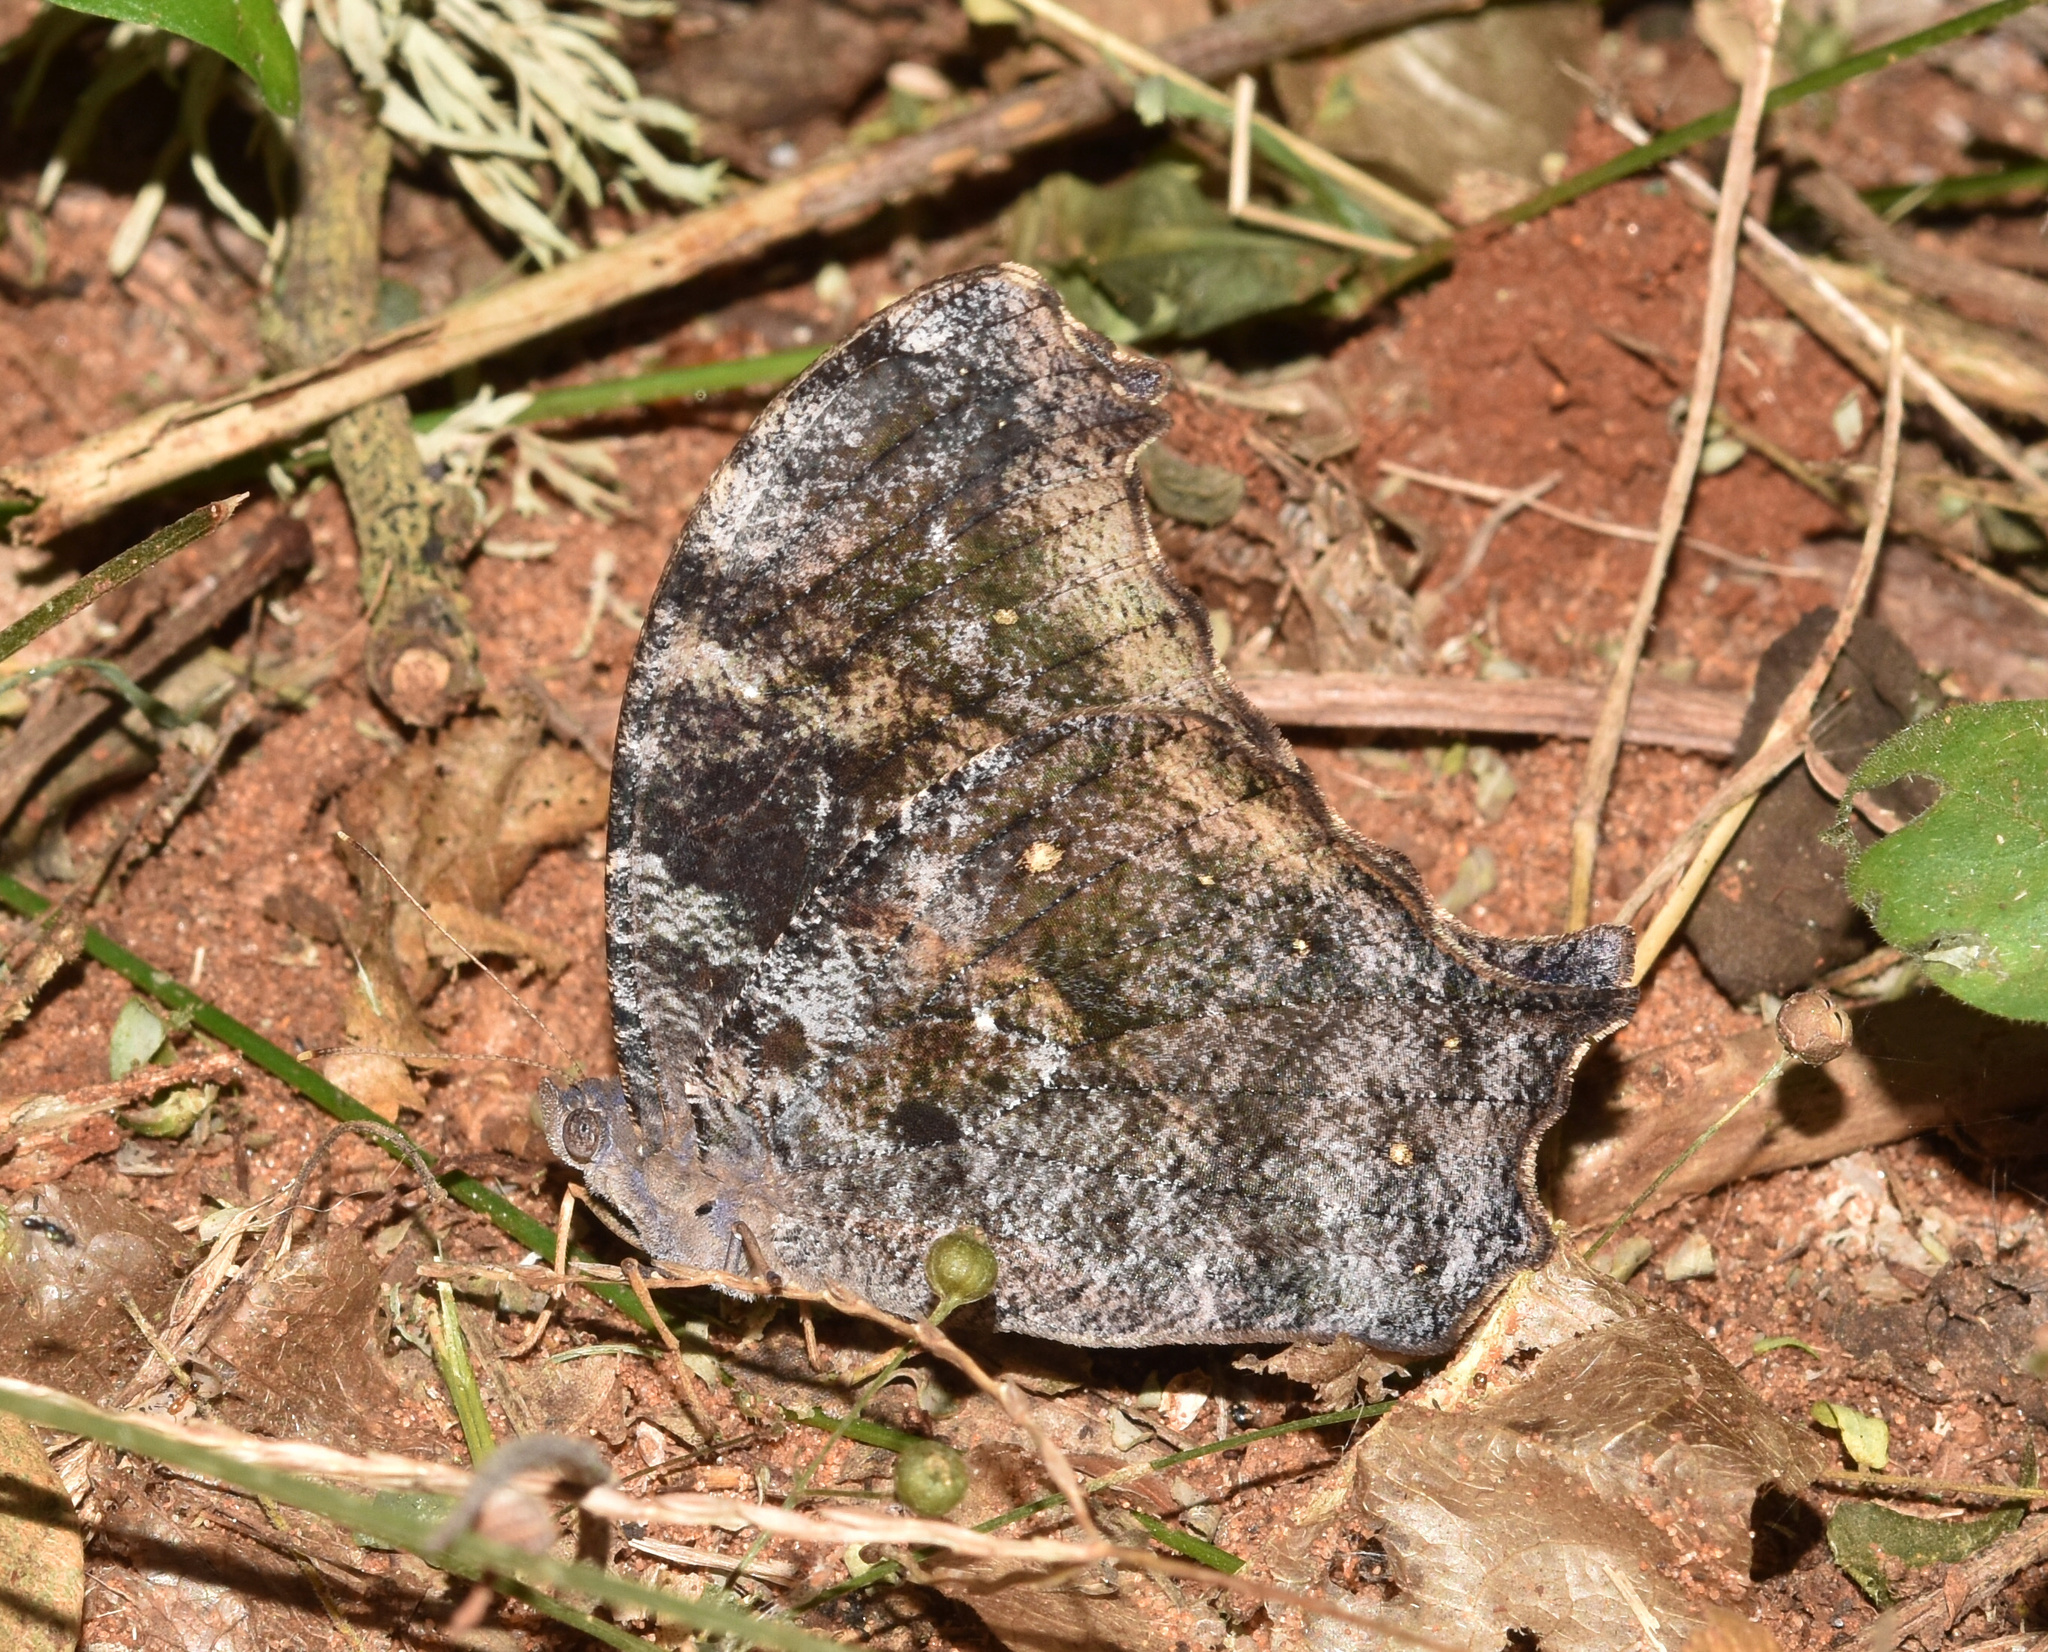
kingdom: Animalia
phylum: Arthropoda
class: Insecta
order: Lepidoptera
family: Nymphalidae
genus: Melanitis
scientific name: Melanitis leda
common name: Twilight brown
